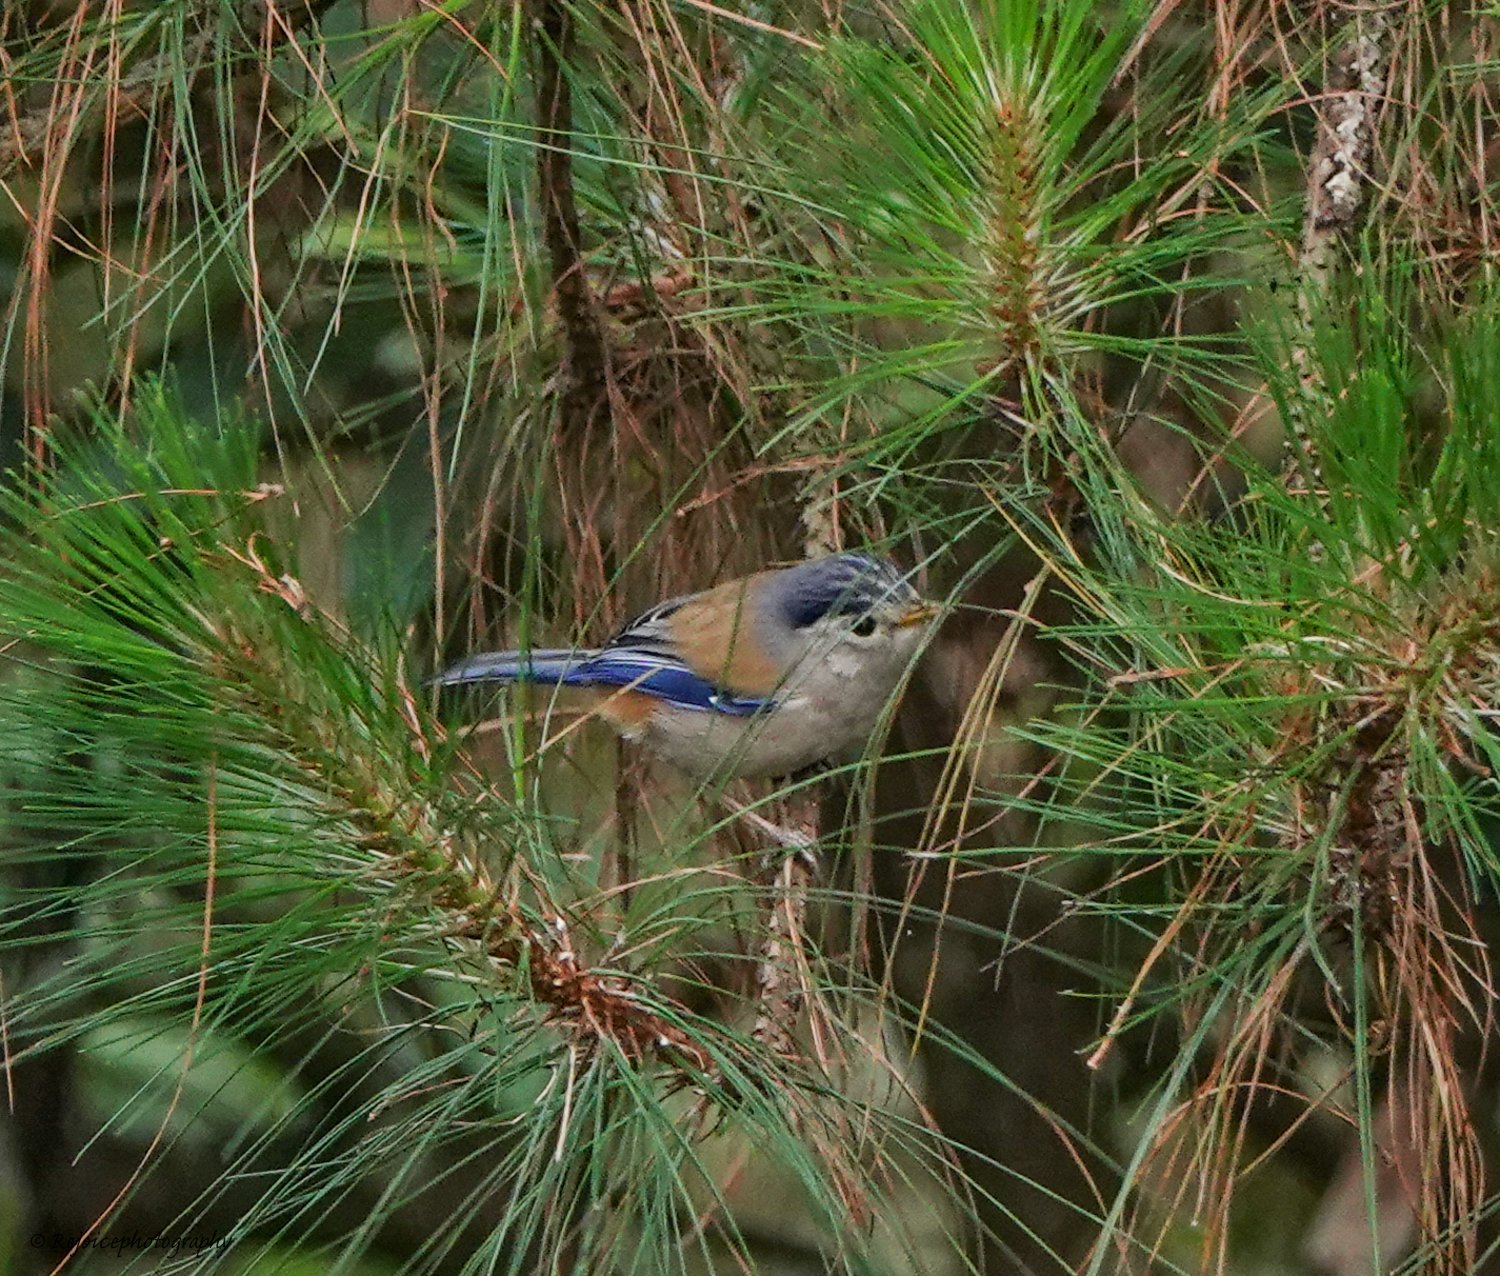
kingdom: Animalia
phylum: Chordata
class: Aves
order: Passeriformes
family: Leiothrichidae
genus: Minla
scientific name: Minla cyanouroptera
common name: Blue-winged minla
